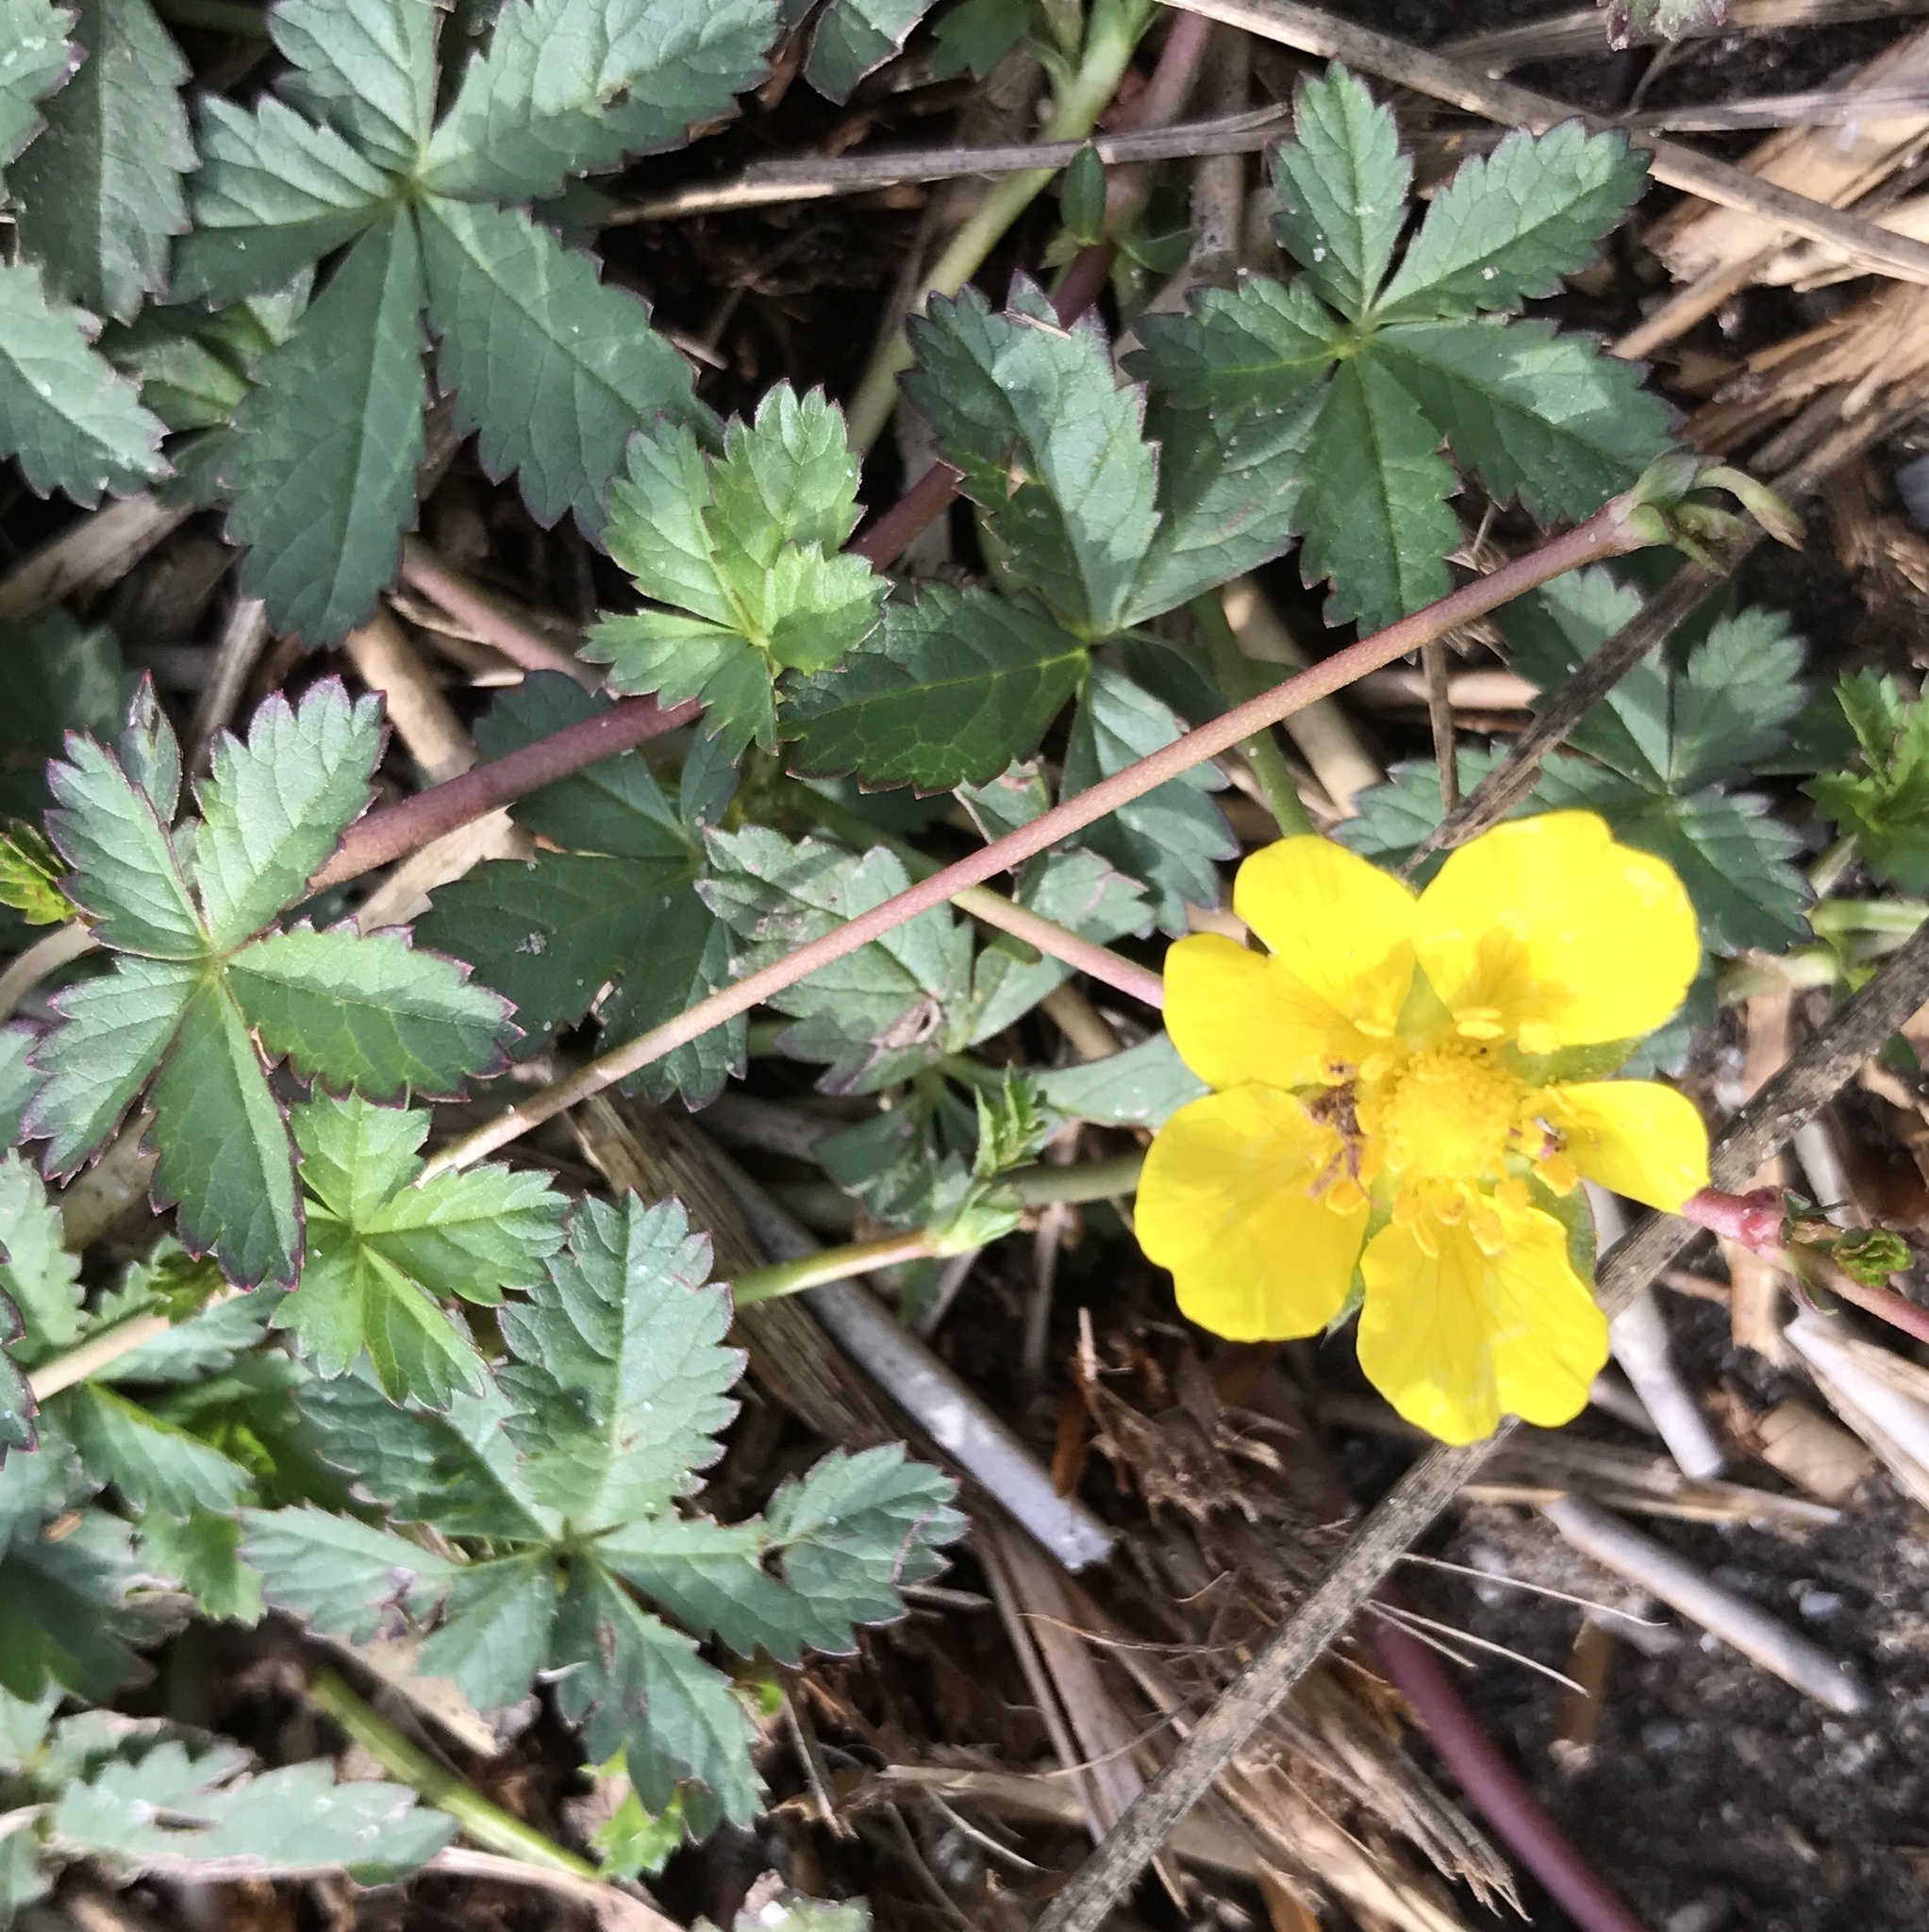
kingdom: Plantae
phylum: Tracheophyta
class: Magnoliopsida
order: Rosales
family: Rosaceae
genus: Potentilla
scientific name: Potentilla reptans
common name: Creeping cinquefoil
